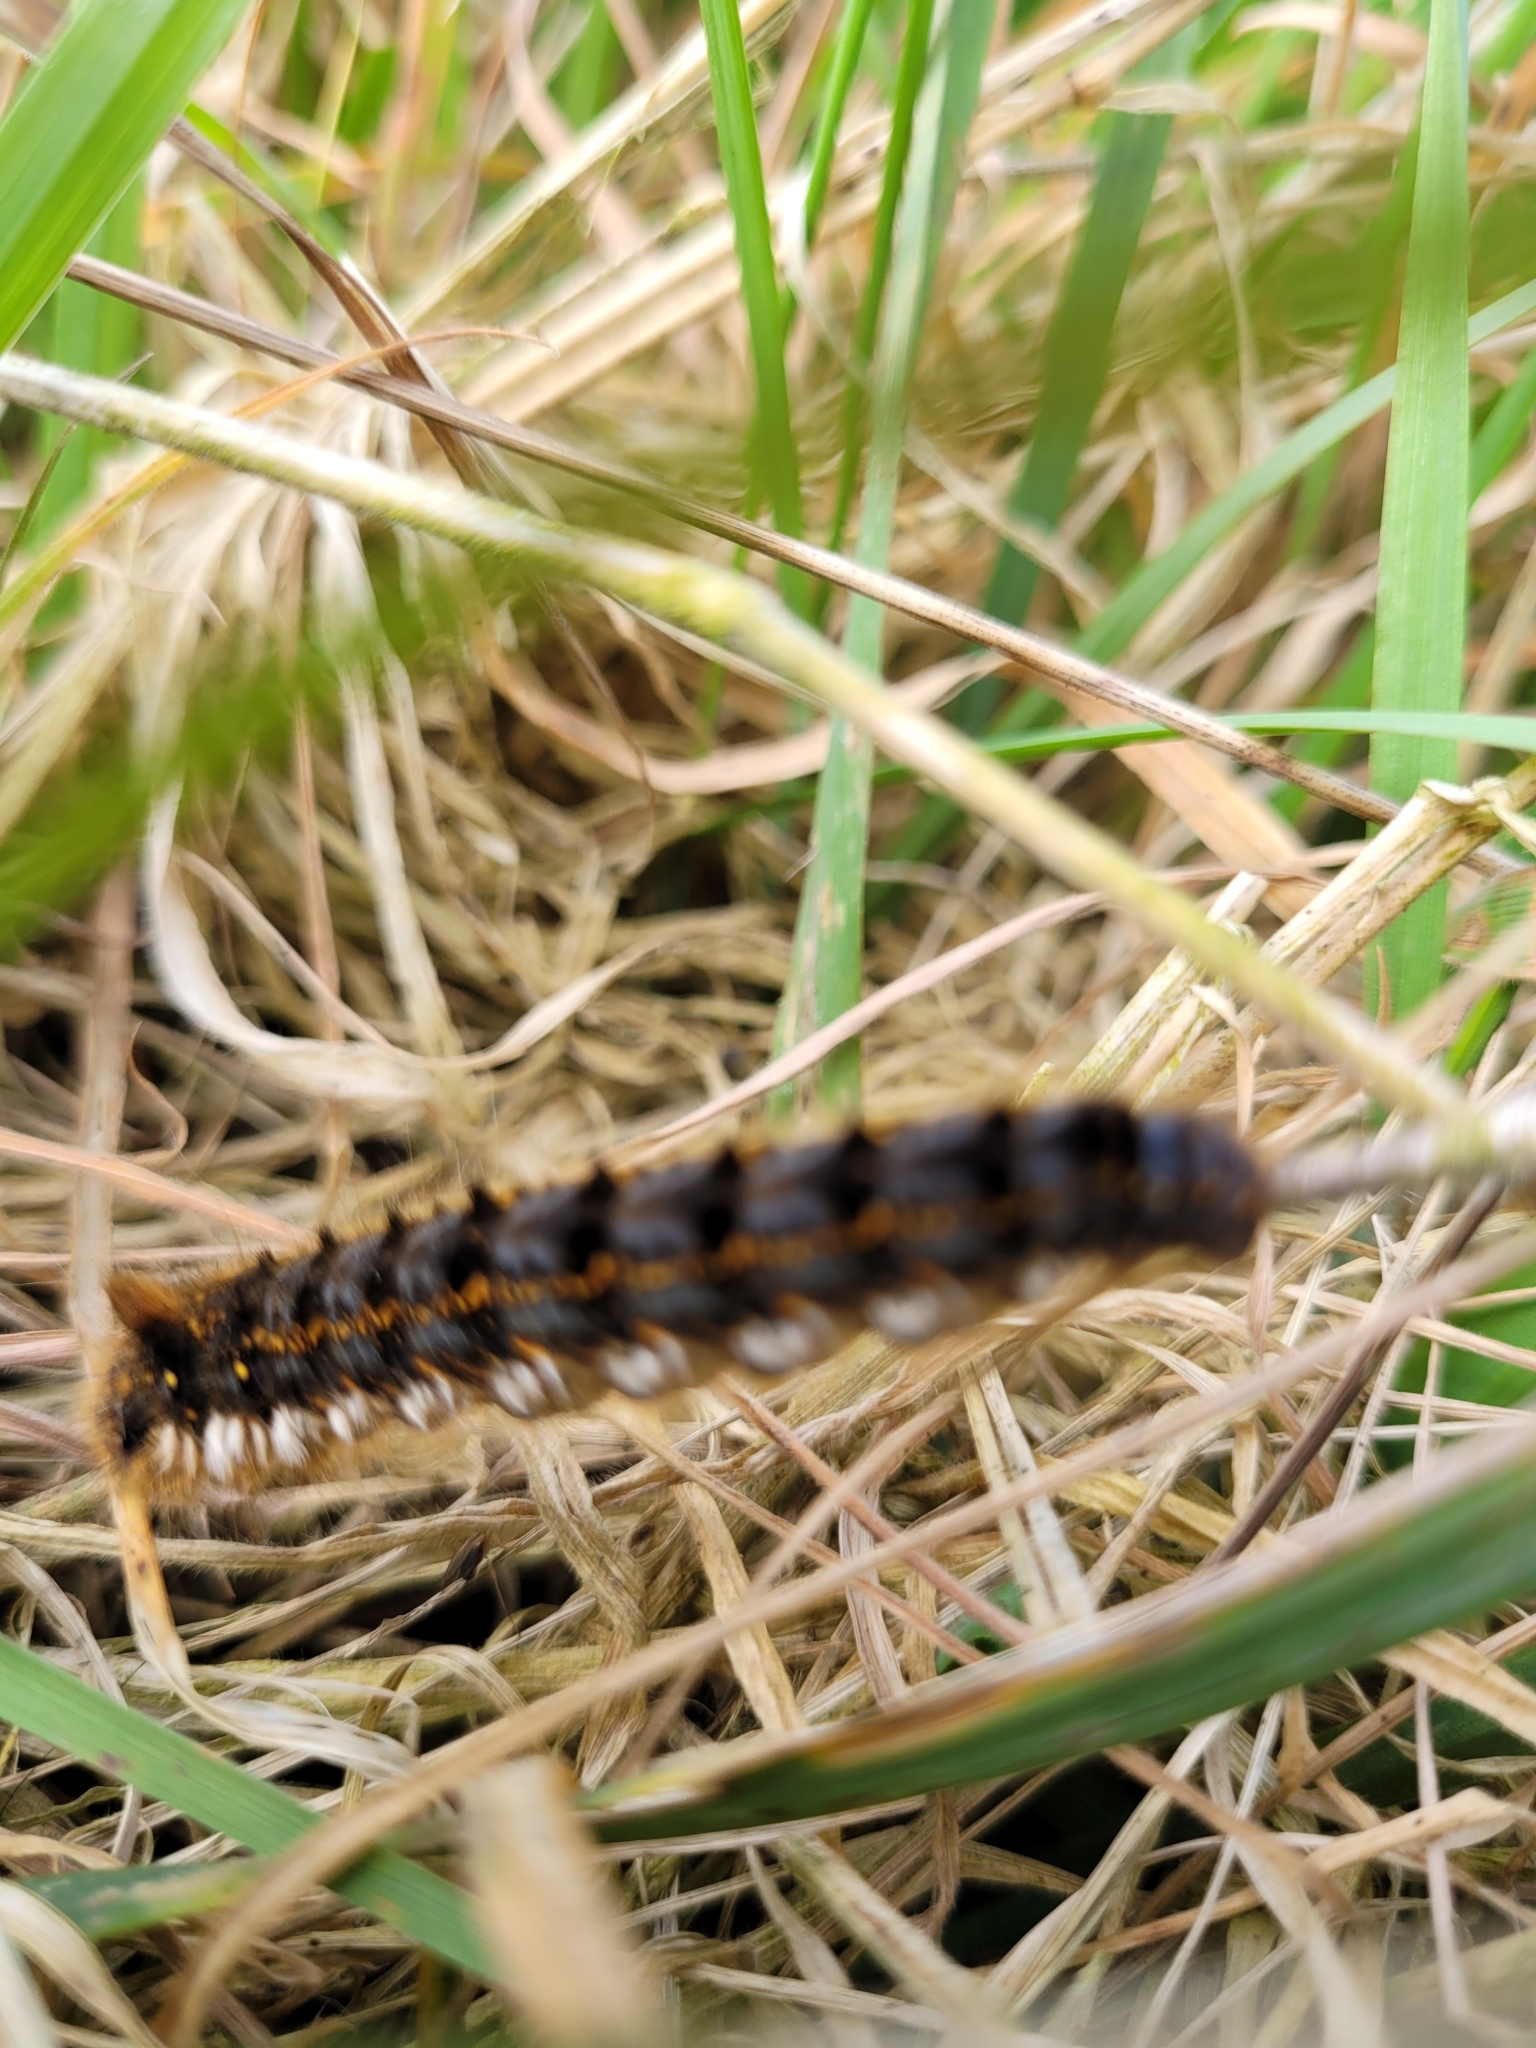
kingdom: Animalia
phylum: Arthropoda
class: Insecta
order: Lepidoptera
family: Lasiocampidae
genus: Euthrix
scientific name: Euthrix potatoria
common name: Drinker
